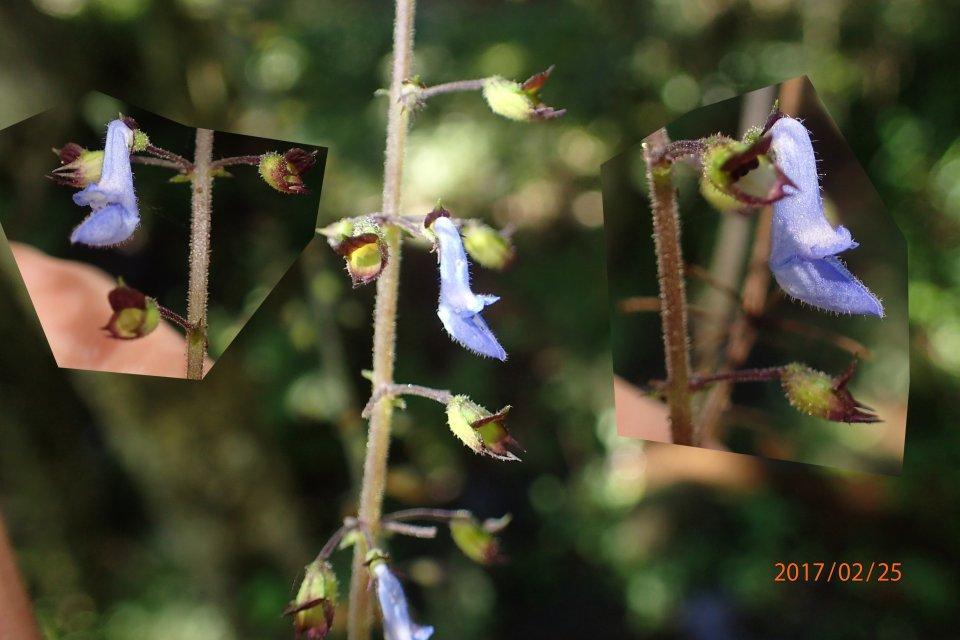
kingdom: Plantae
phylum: Tracheophyta
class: Magnoliopsida
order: Lamiales
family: Lamiaceae
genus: Coleus
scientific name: Coleus dolichopodus
